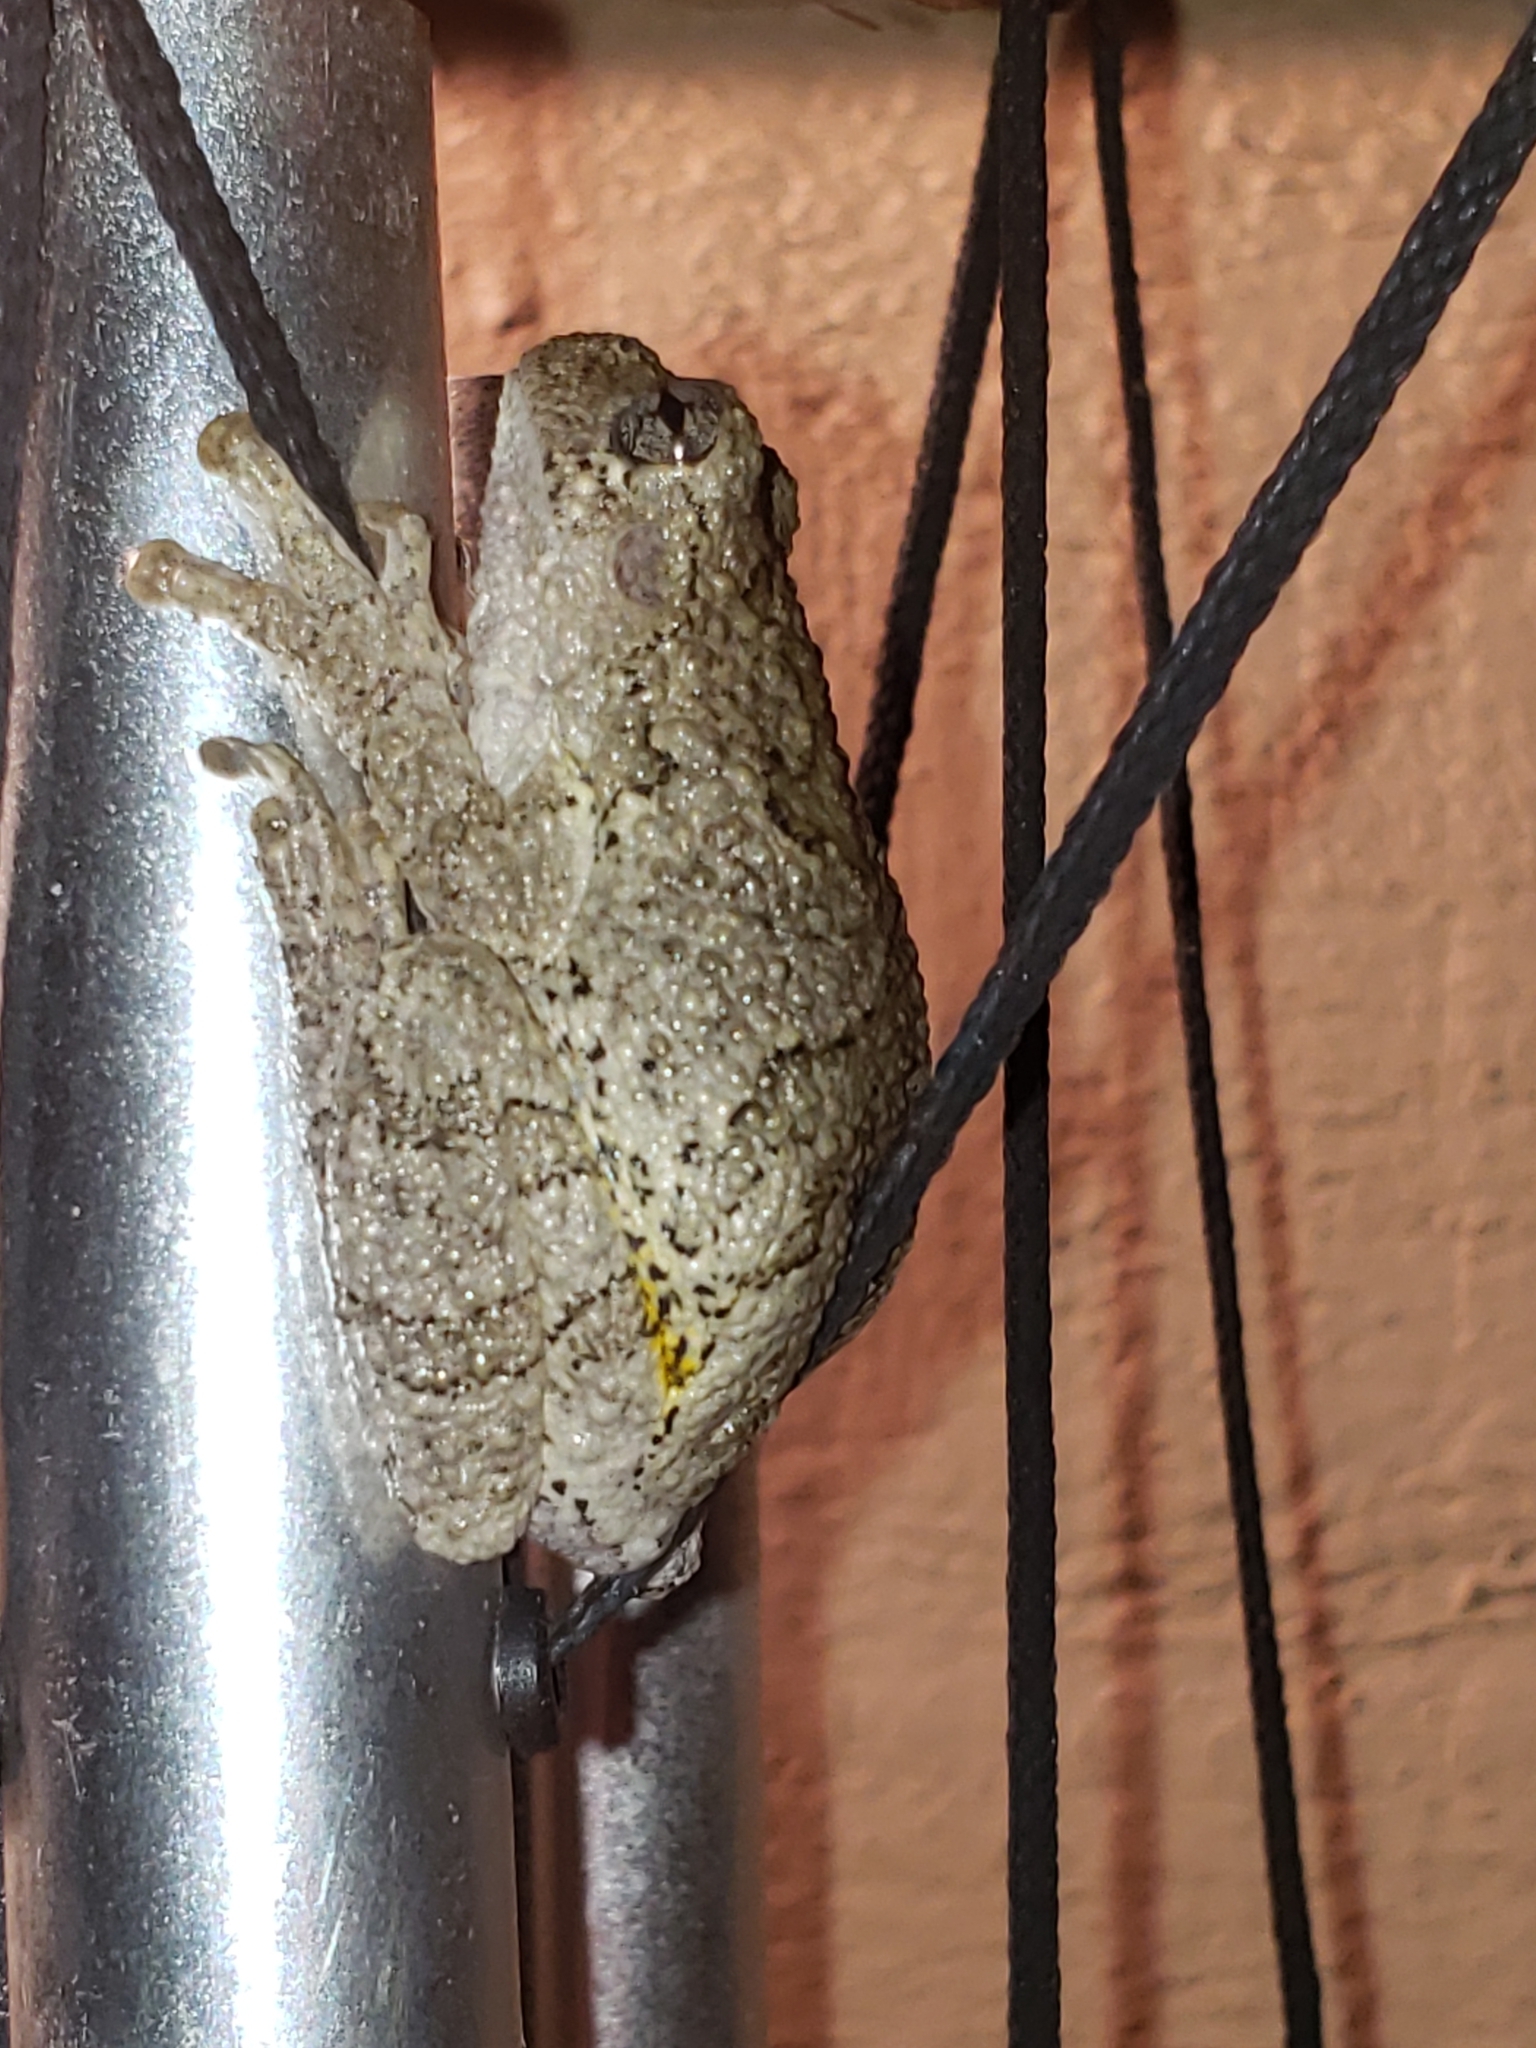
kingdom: Animalia
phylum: Chordata
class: Amphibia
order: Anura
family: Hylidae
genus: Hyla
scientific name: Hyla
